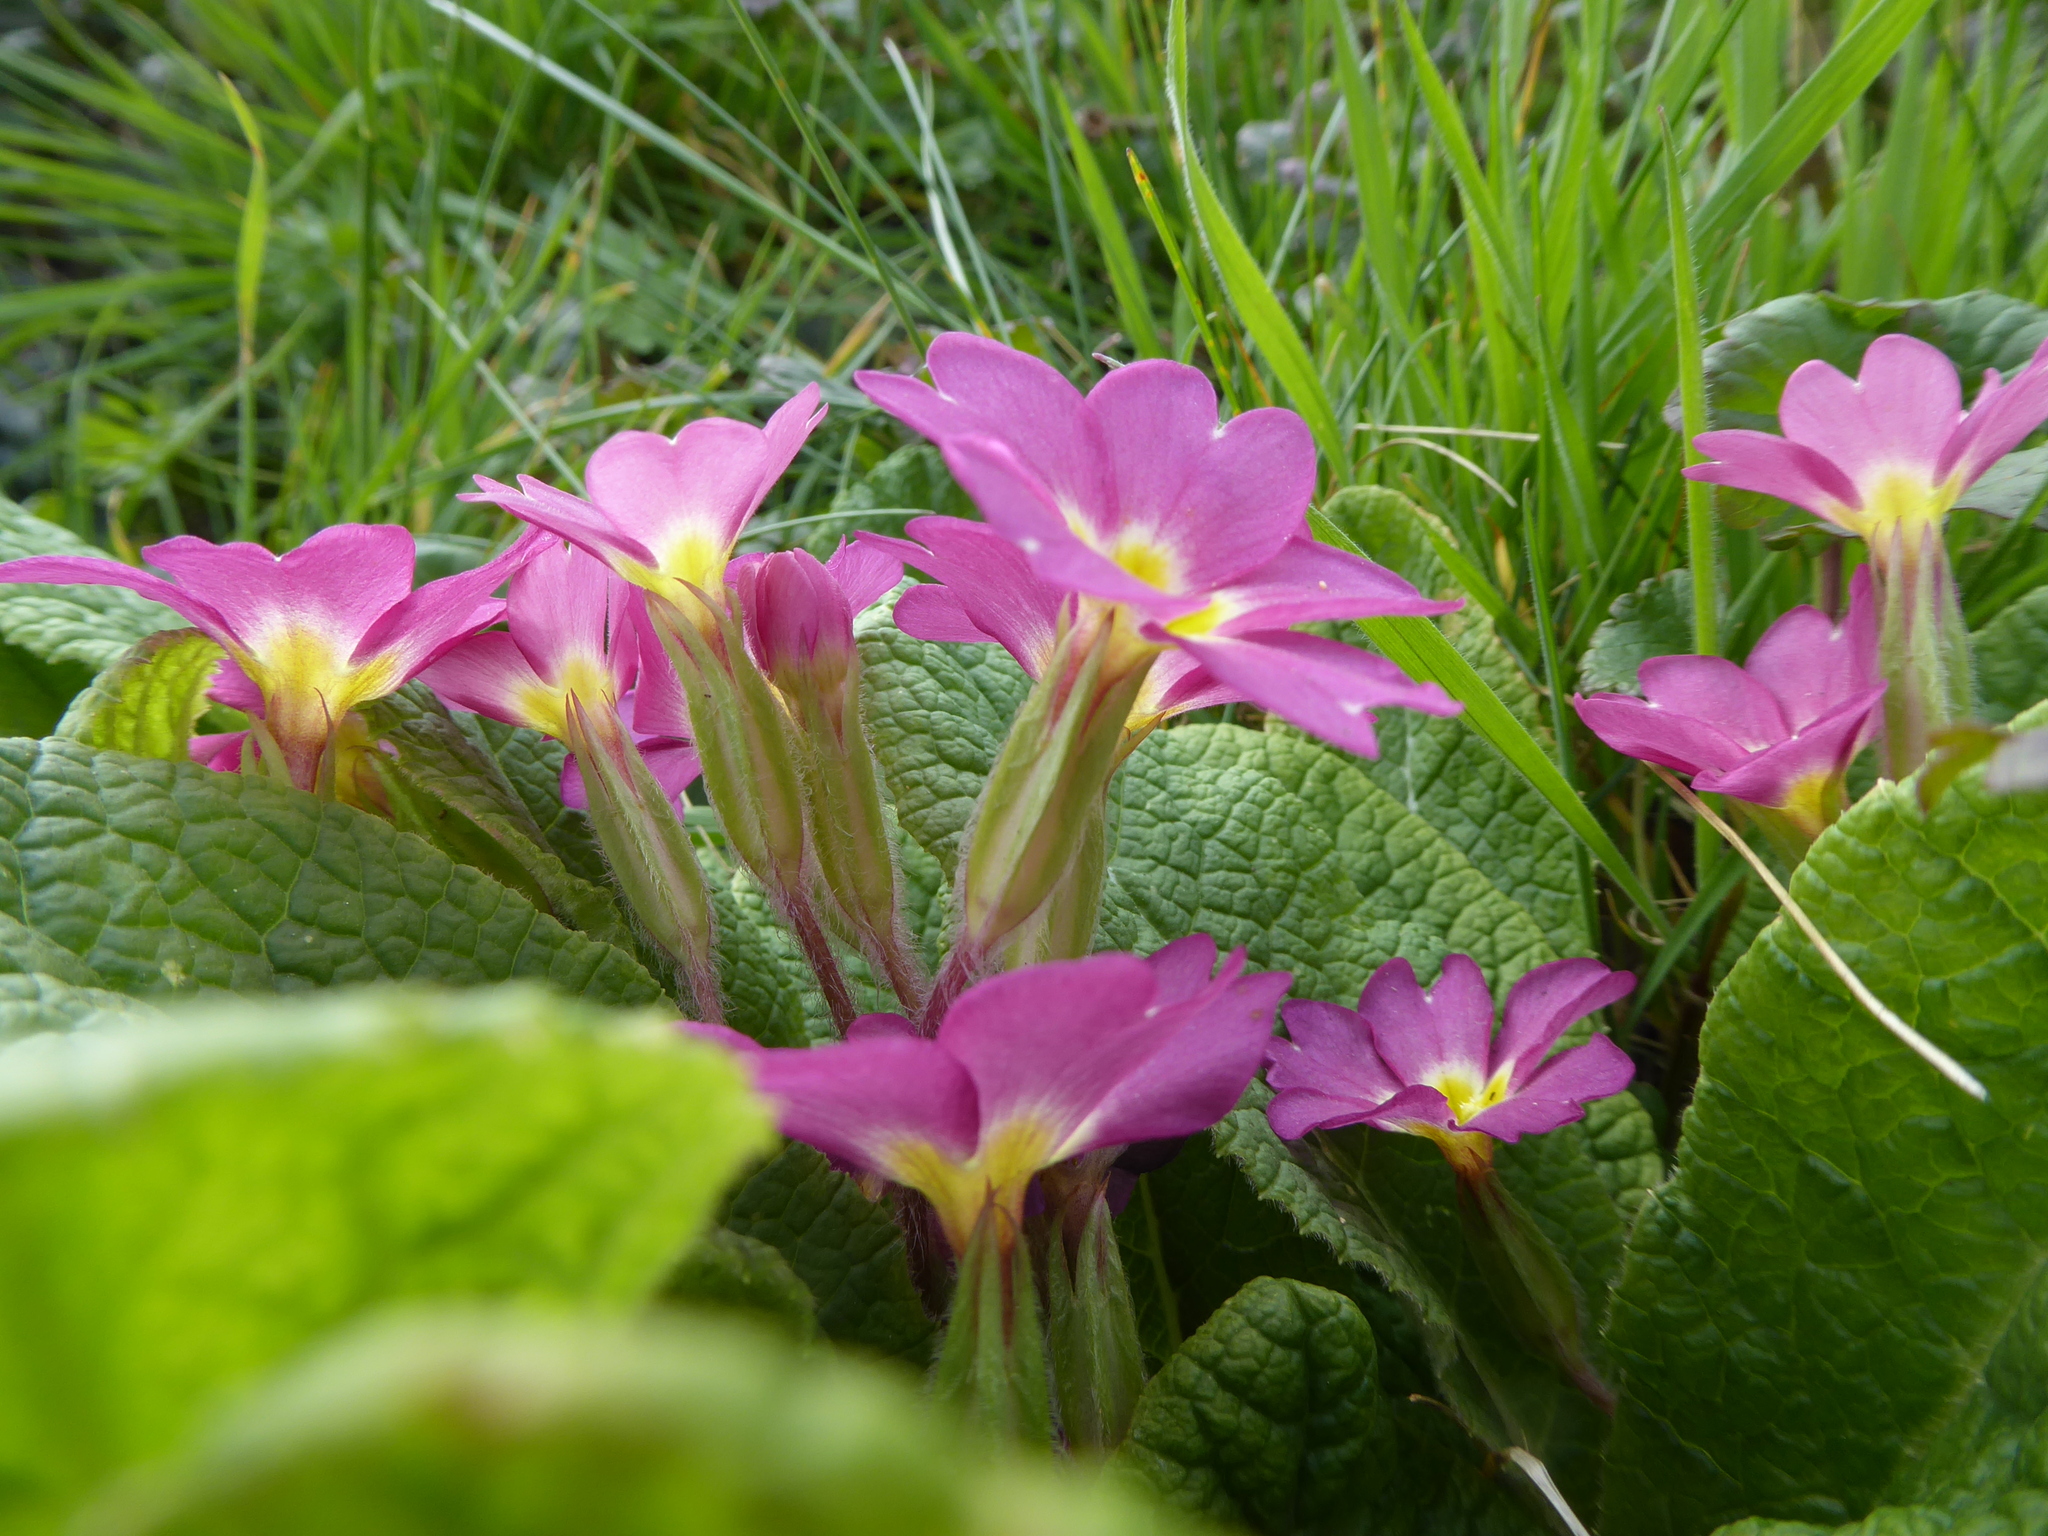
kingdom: Plantae
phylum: Tracheophyta
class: Magnoliopsida
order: Ericales
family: Primulaceae
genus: Primula
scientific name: Primula vulgaris
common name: Primrose
